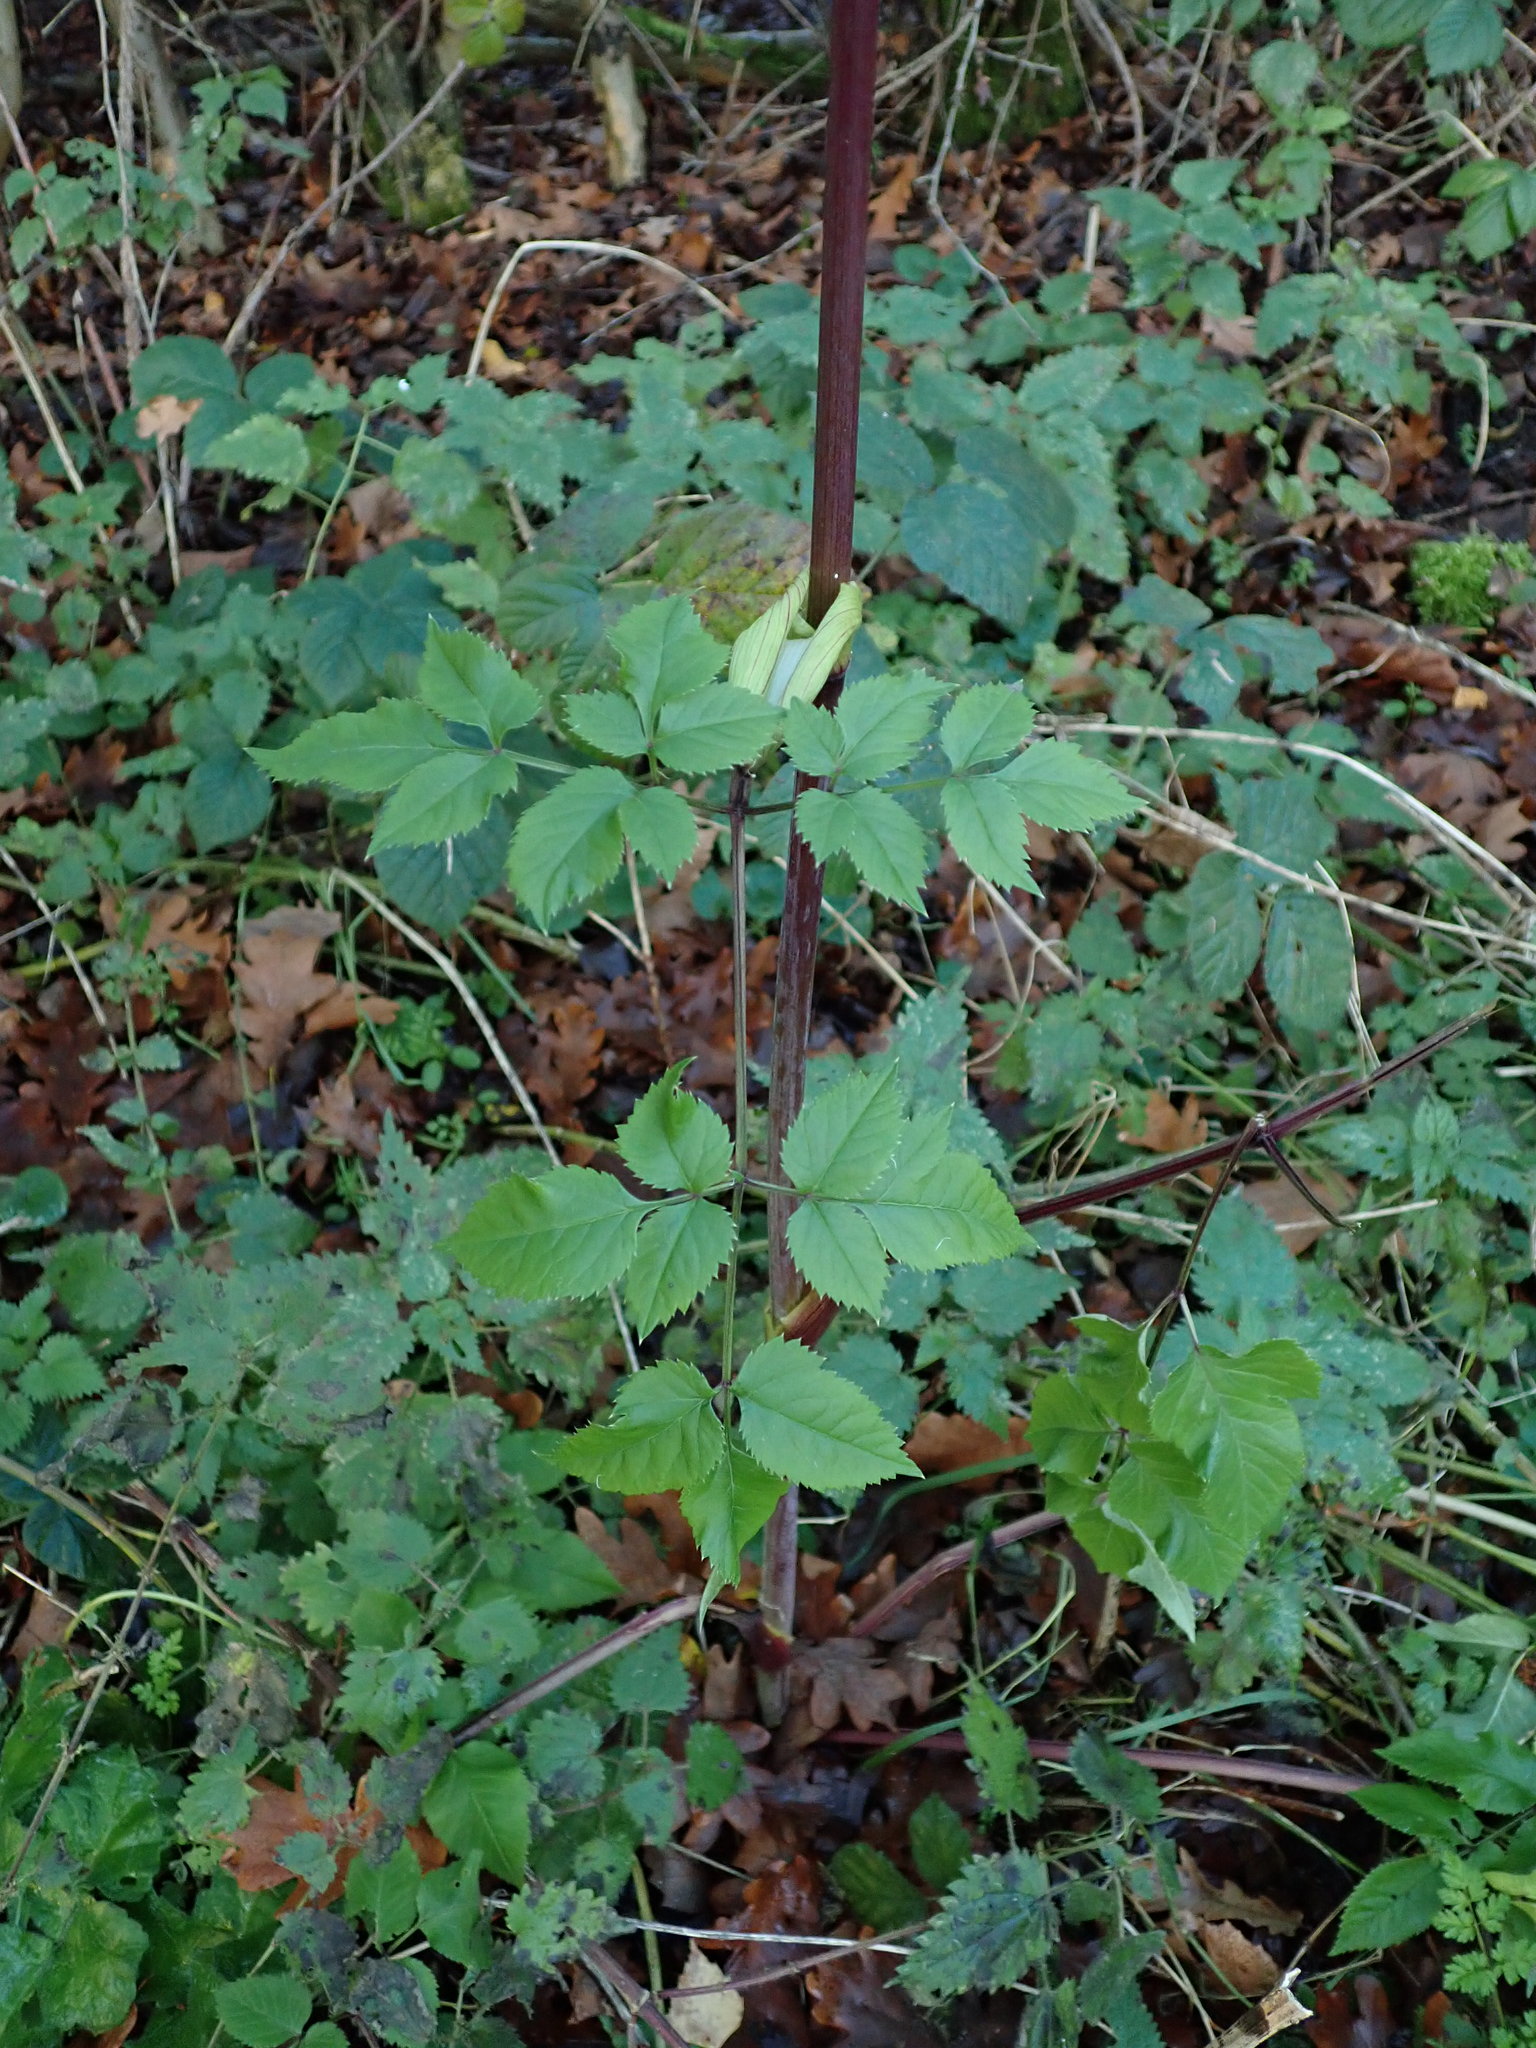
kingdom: Plantae
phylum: Tracheophyta
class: Magnoliopsida
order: Apiales
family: Apiaceae
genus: Angelica
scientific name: Angelica sylvestris
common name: Wild angelica
